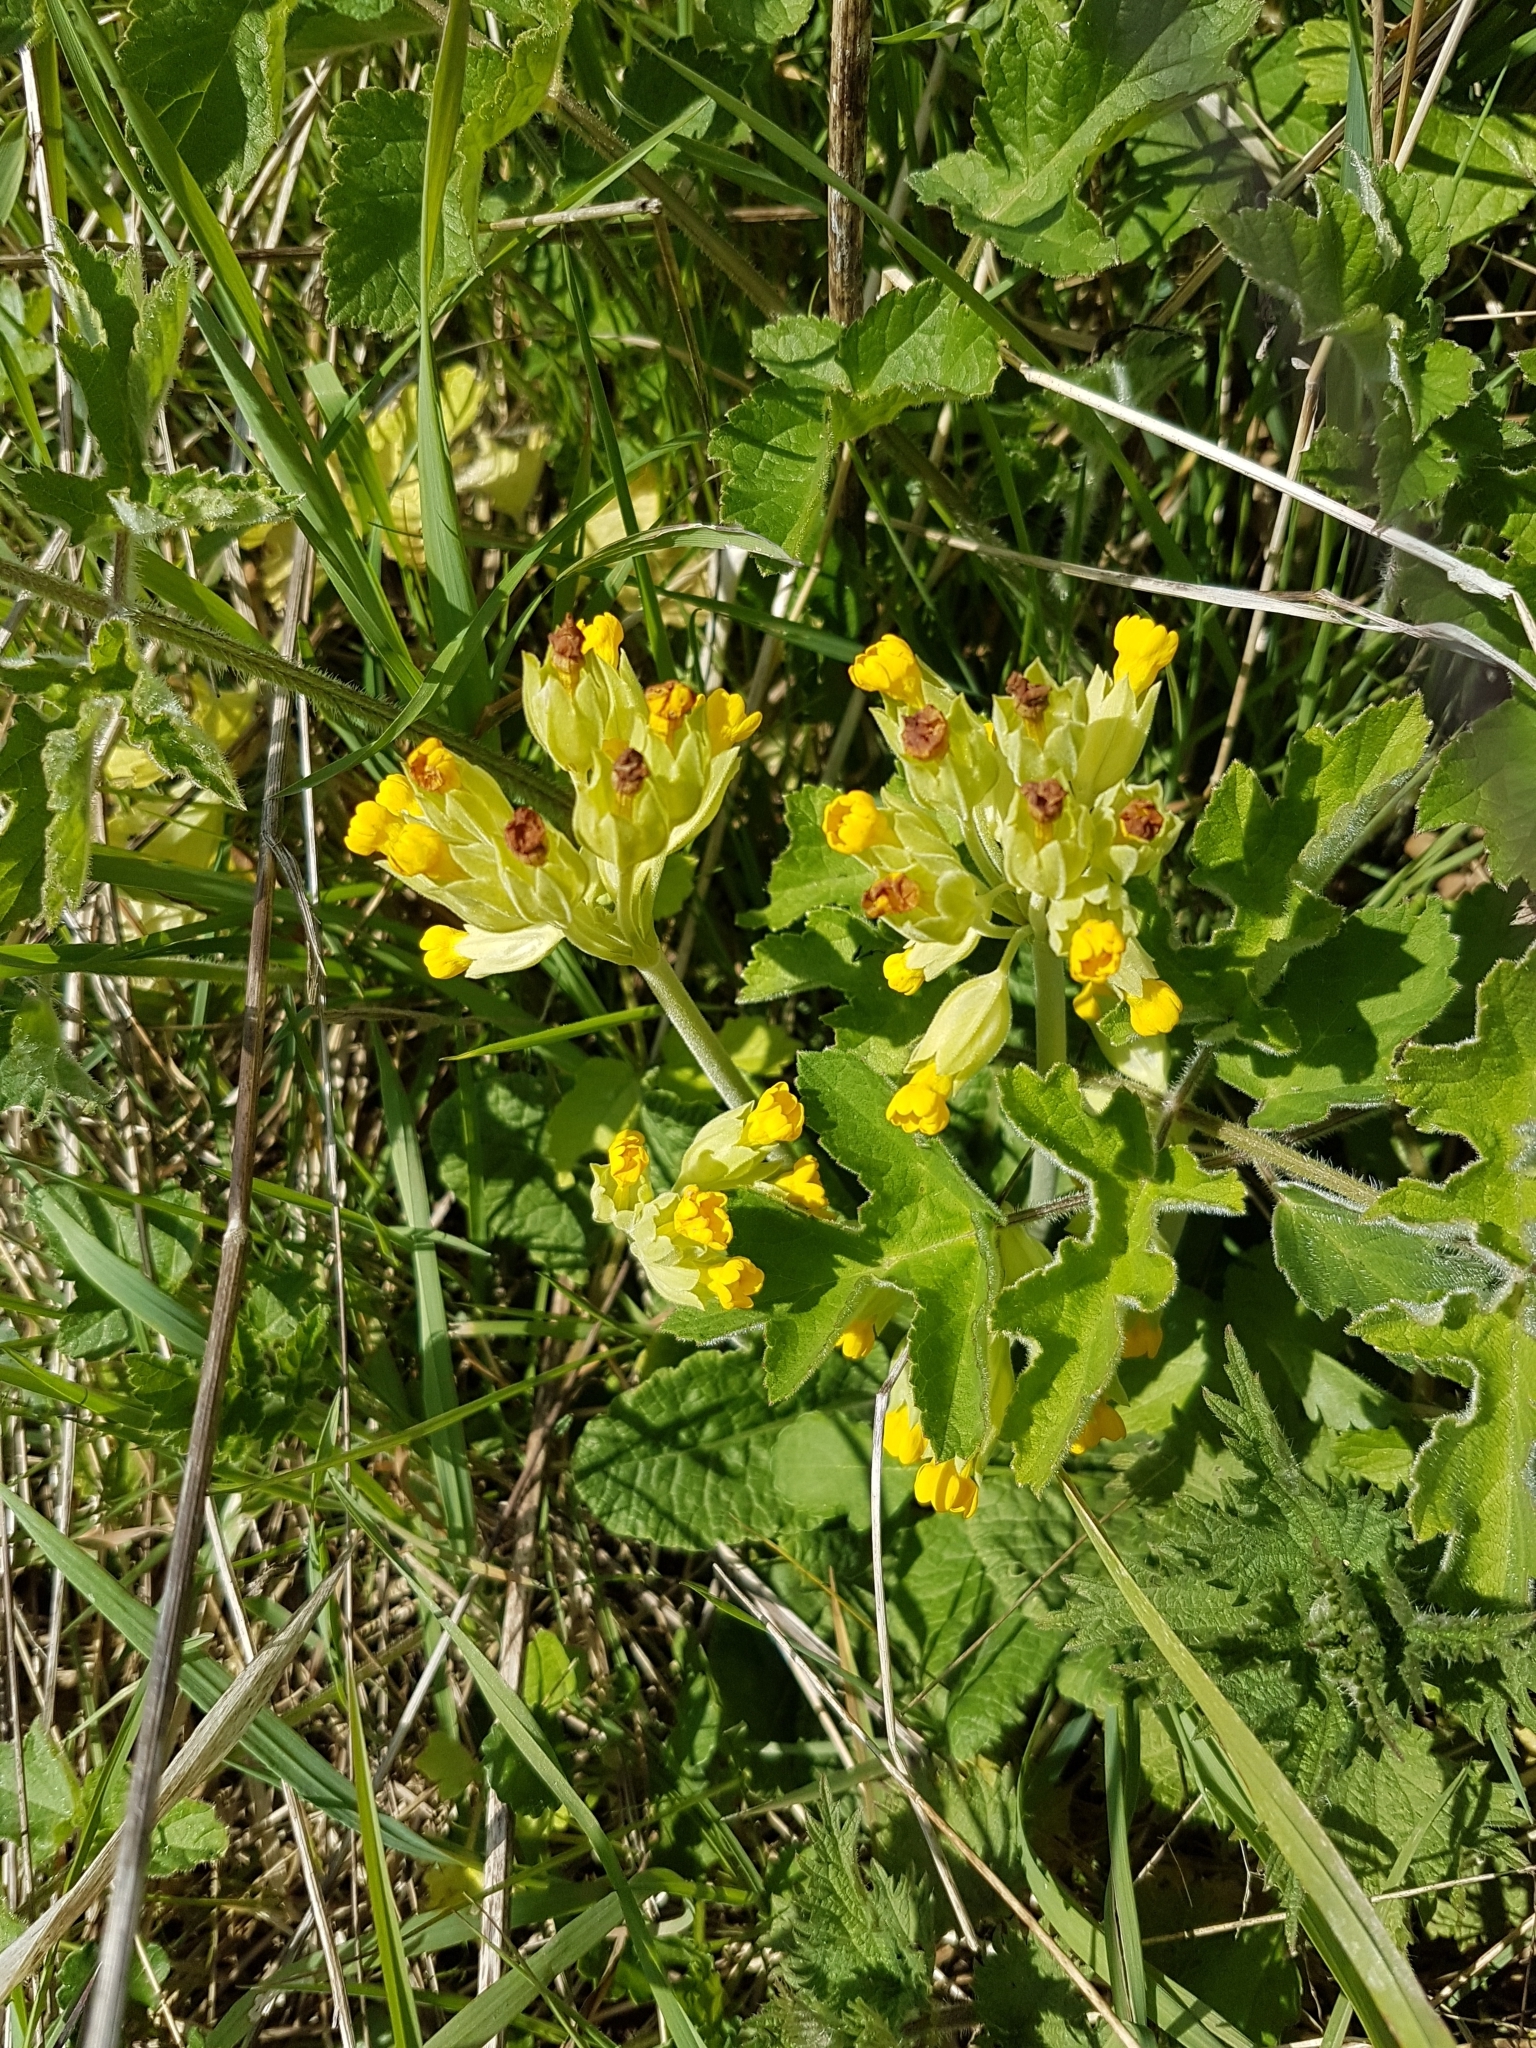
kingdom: Plantae
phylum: Tracheophyta
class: Magnoliopsida
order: Ericales
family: Primulaceae
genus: Primula
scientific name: Primula veris
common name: Cowslip
